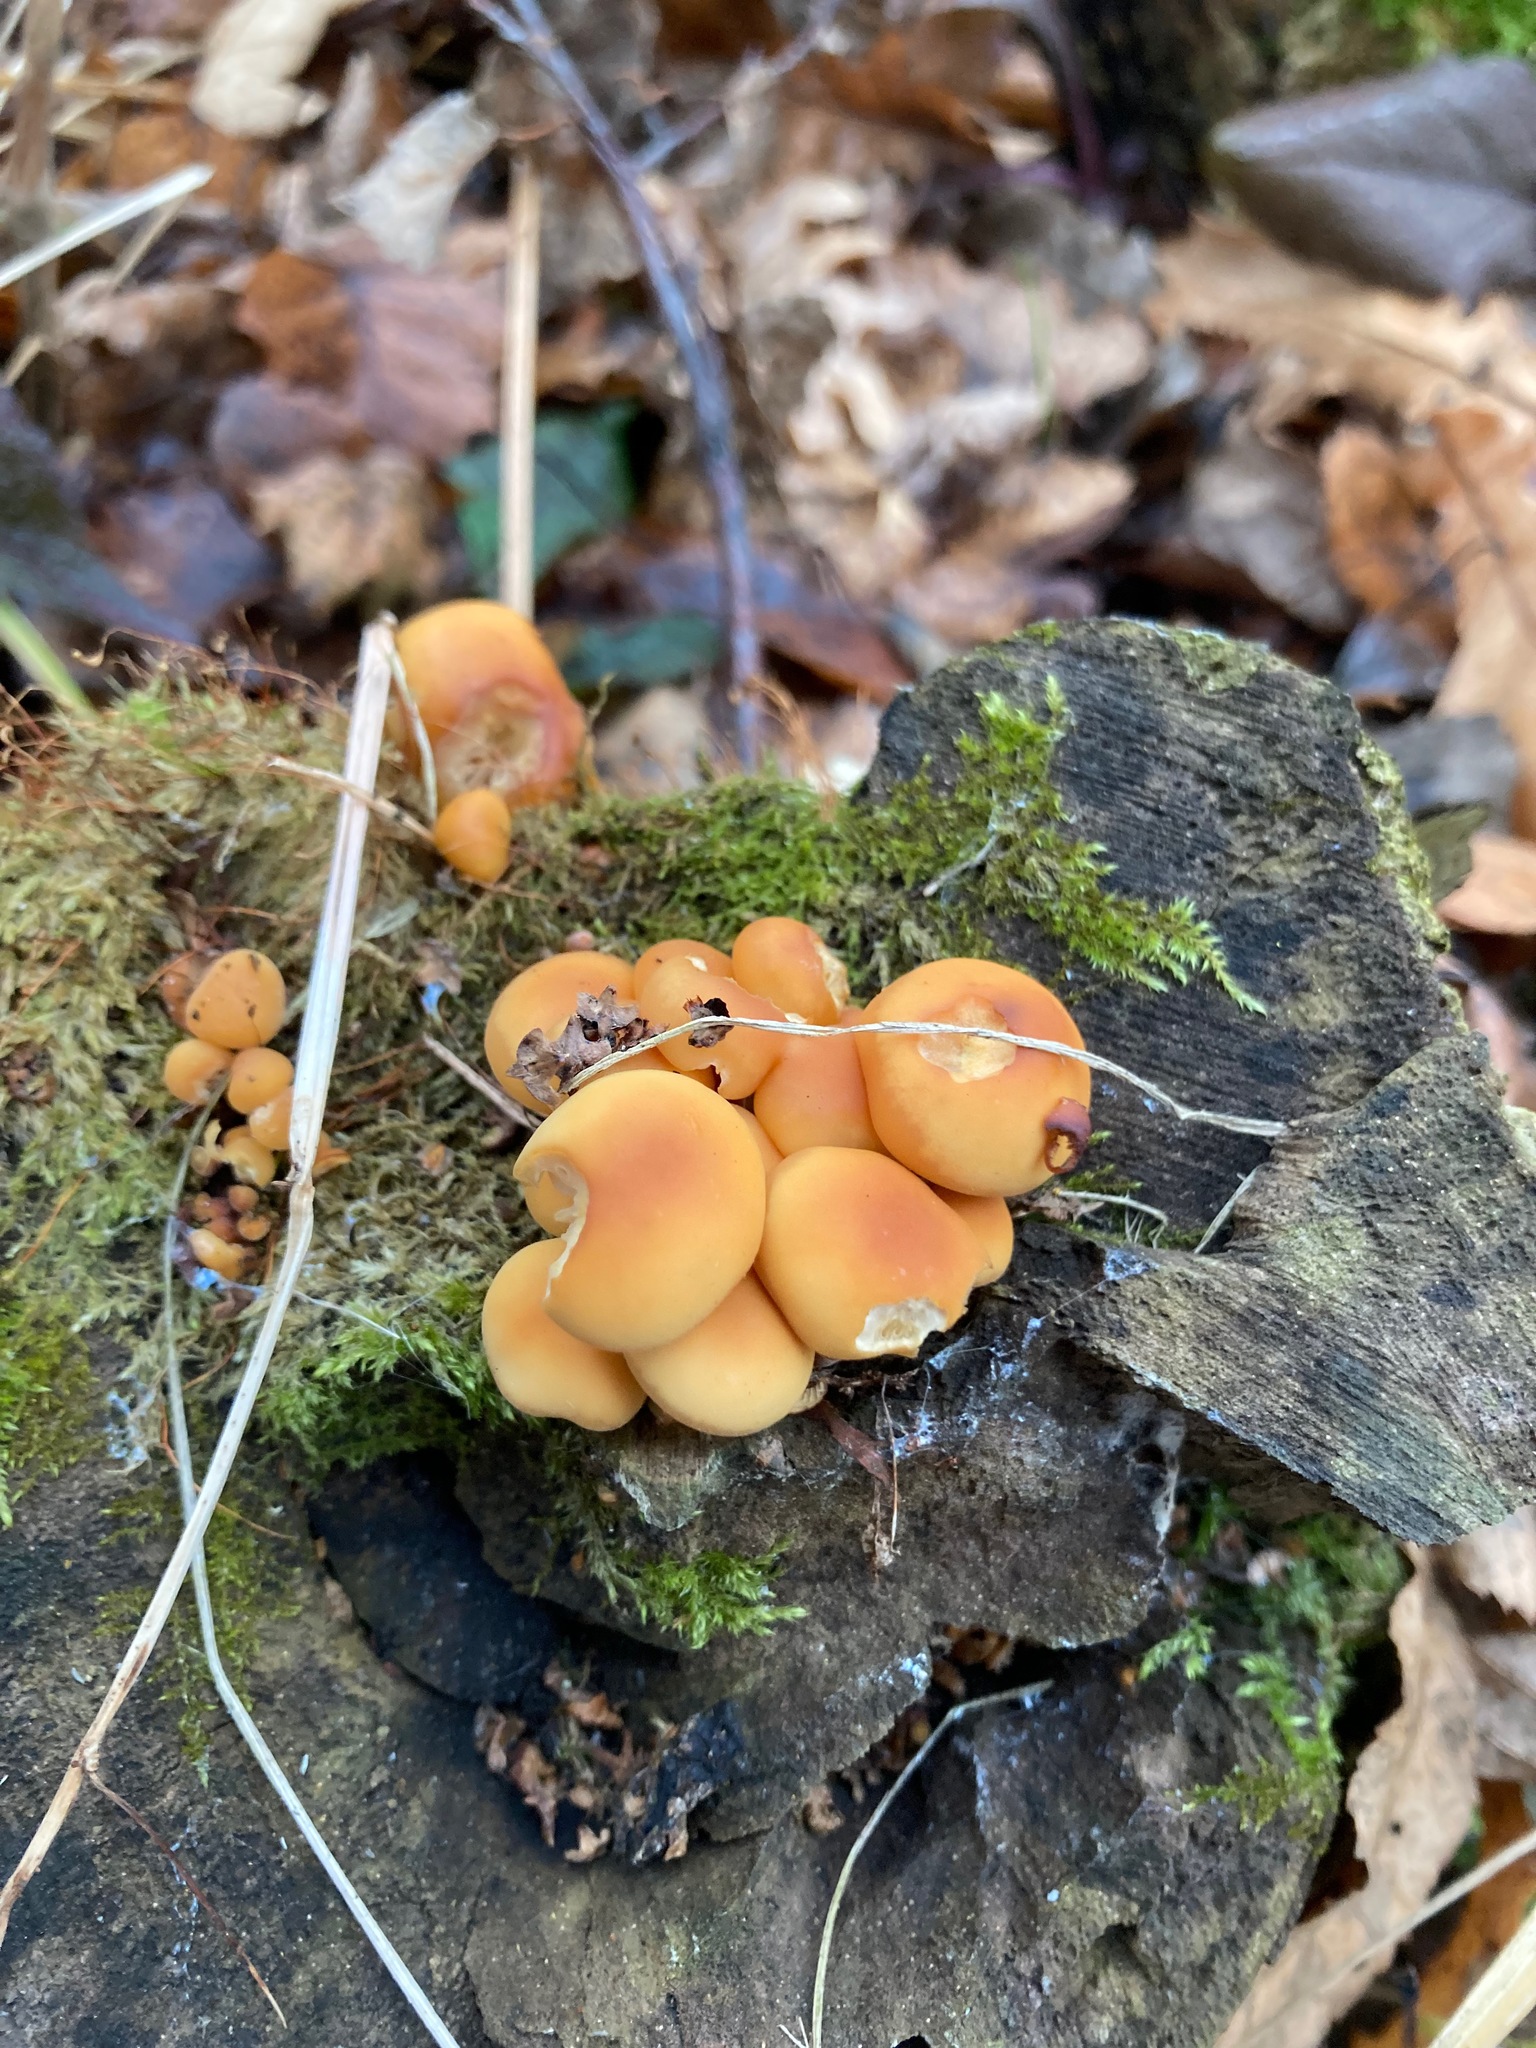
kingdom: Fungi
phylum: Basidiomycota
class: Agaricomycetes
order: Agaricales
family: Physalacriaceae
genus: Flammulina
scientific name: Flammulina
